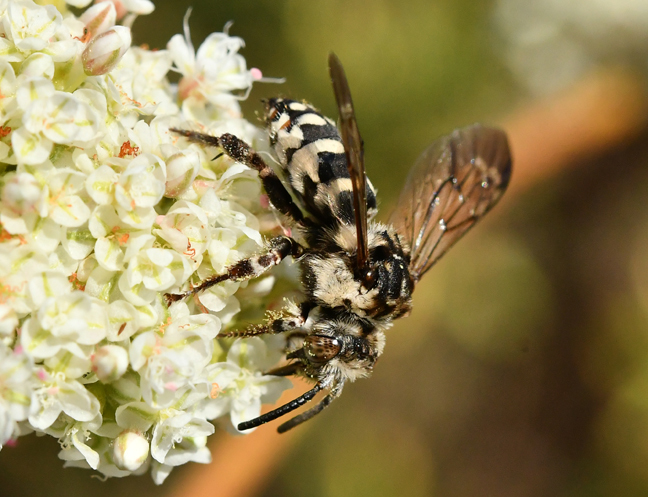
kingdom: Animalia
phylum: Arthropoda
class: Insecta
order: Hymenoptera
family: Apidae
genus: Brachymelecta
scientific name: Brachymelecta californica
